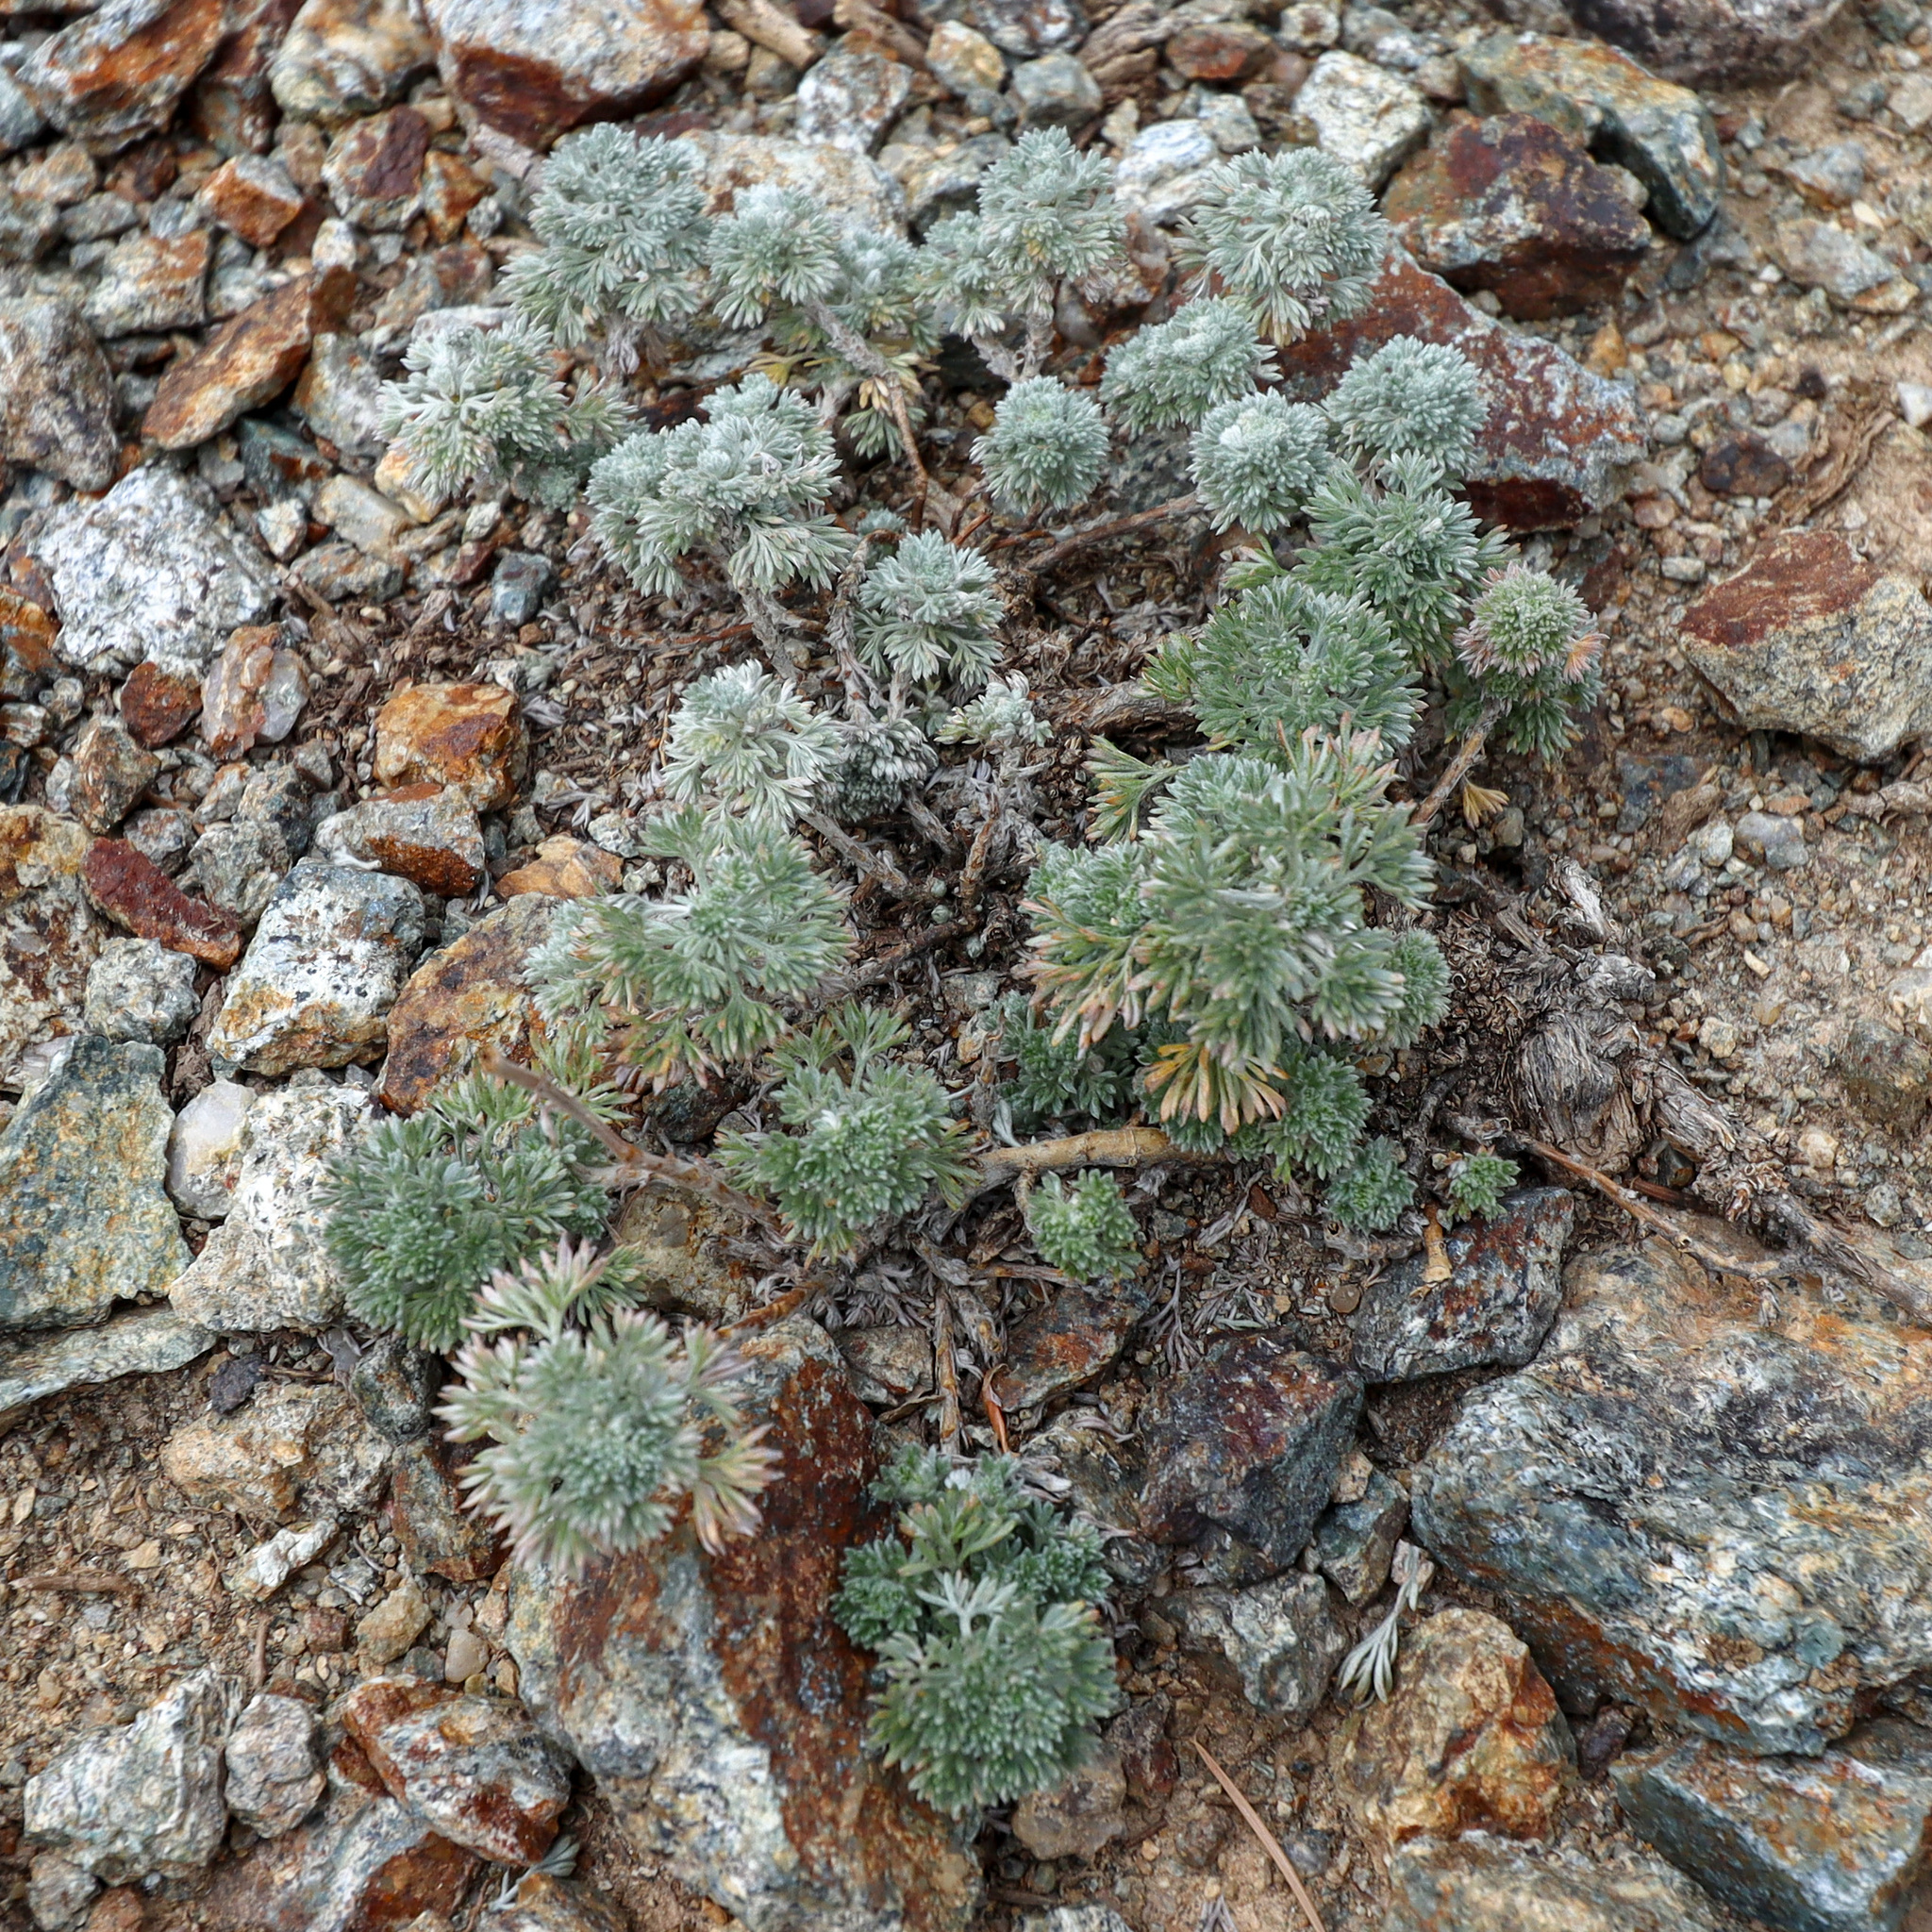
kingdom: Plantae
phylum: Tracheophyta
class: Magnoliopsida
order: Asterales
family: Asteraceae
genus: Artemisia
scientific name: Artemisia frigida
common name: Prairie sagewort
